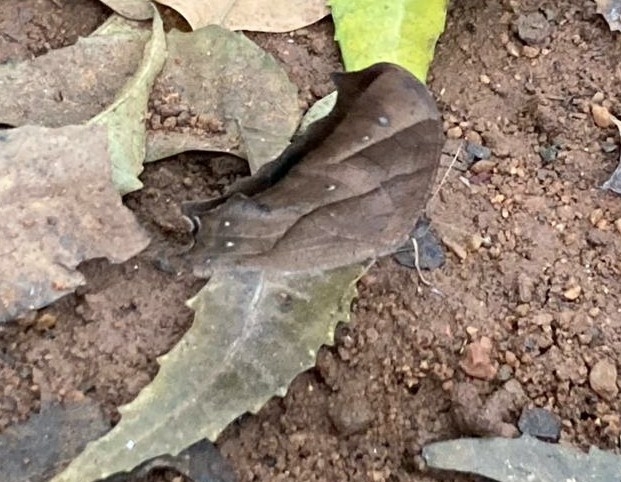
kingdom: Animalia
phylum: Arthropoda
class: Insecta
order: Lepidoptera
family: Nymphalidae
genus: Melanitis
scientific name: Melanitis leda
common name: Twilight brown
